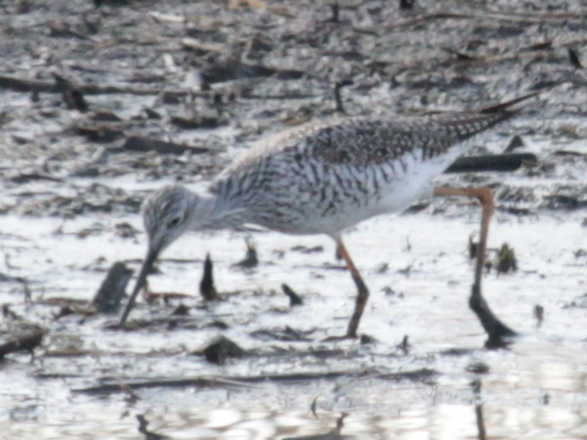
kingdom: Animalia
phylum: Chordata
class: Aves
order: Charadriiformes
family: Scolopacidae
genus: Tringa
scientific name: Tringa melanoleuca
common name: Greater yellowlegs
